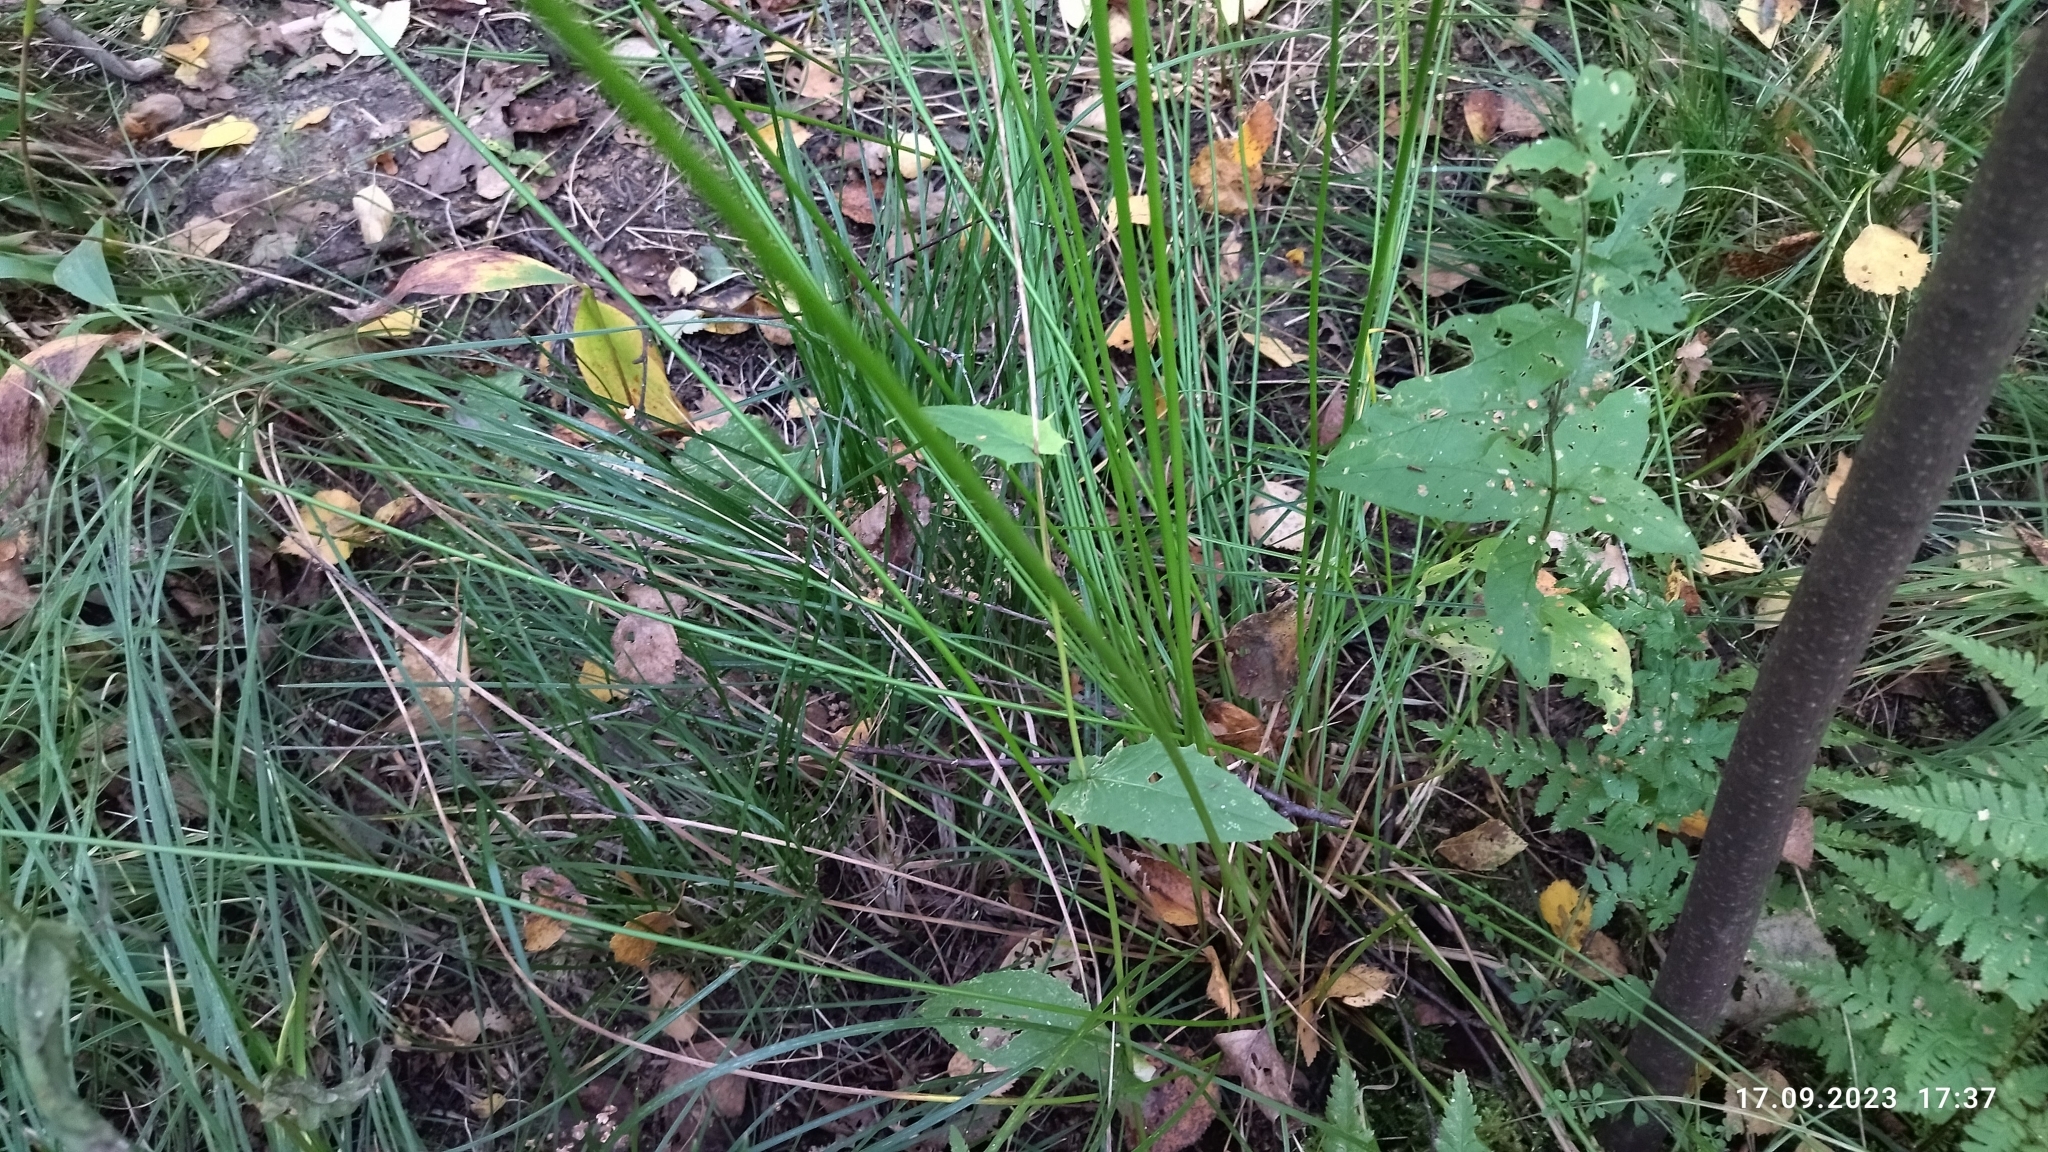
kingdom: Plantae
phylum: Tracheophyta
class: Liliopsida
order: Poales
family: Juncaceae
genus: Juncus
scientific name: Juncus effusus
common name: Soft rush
